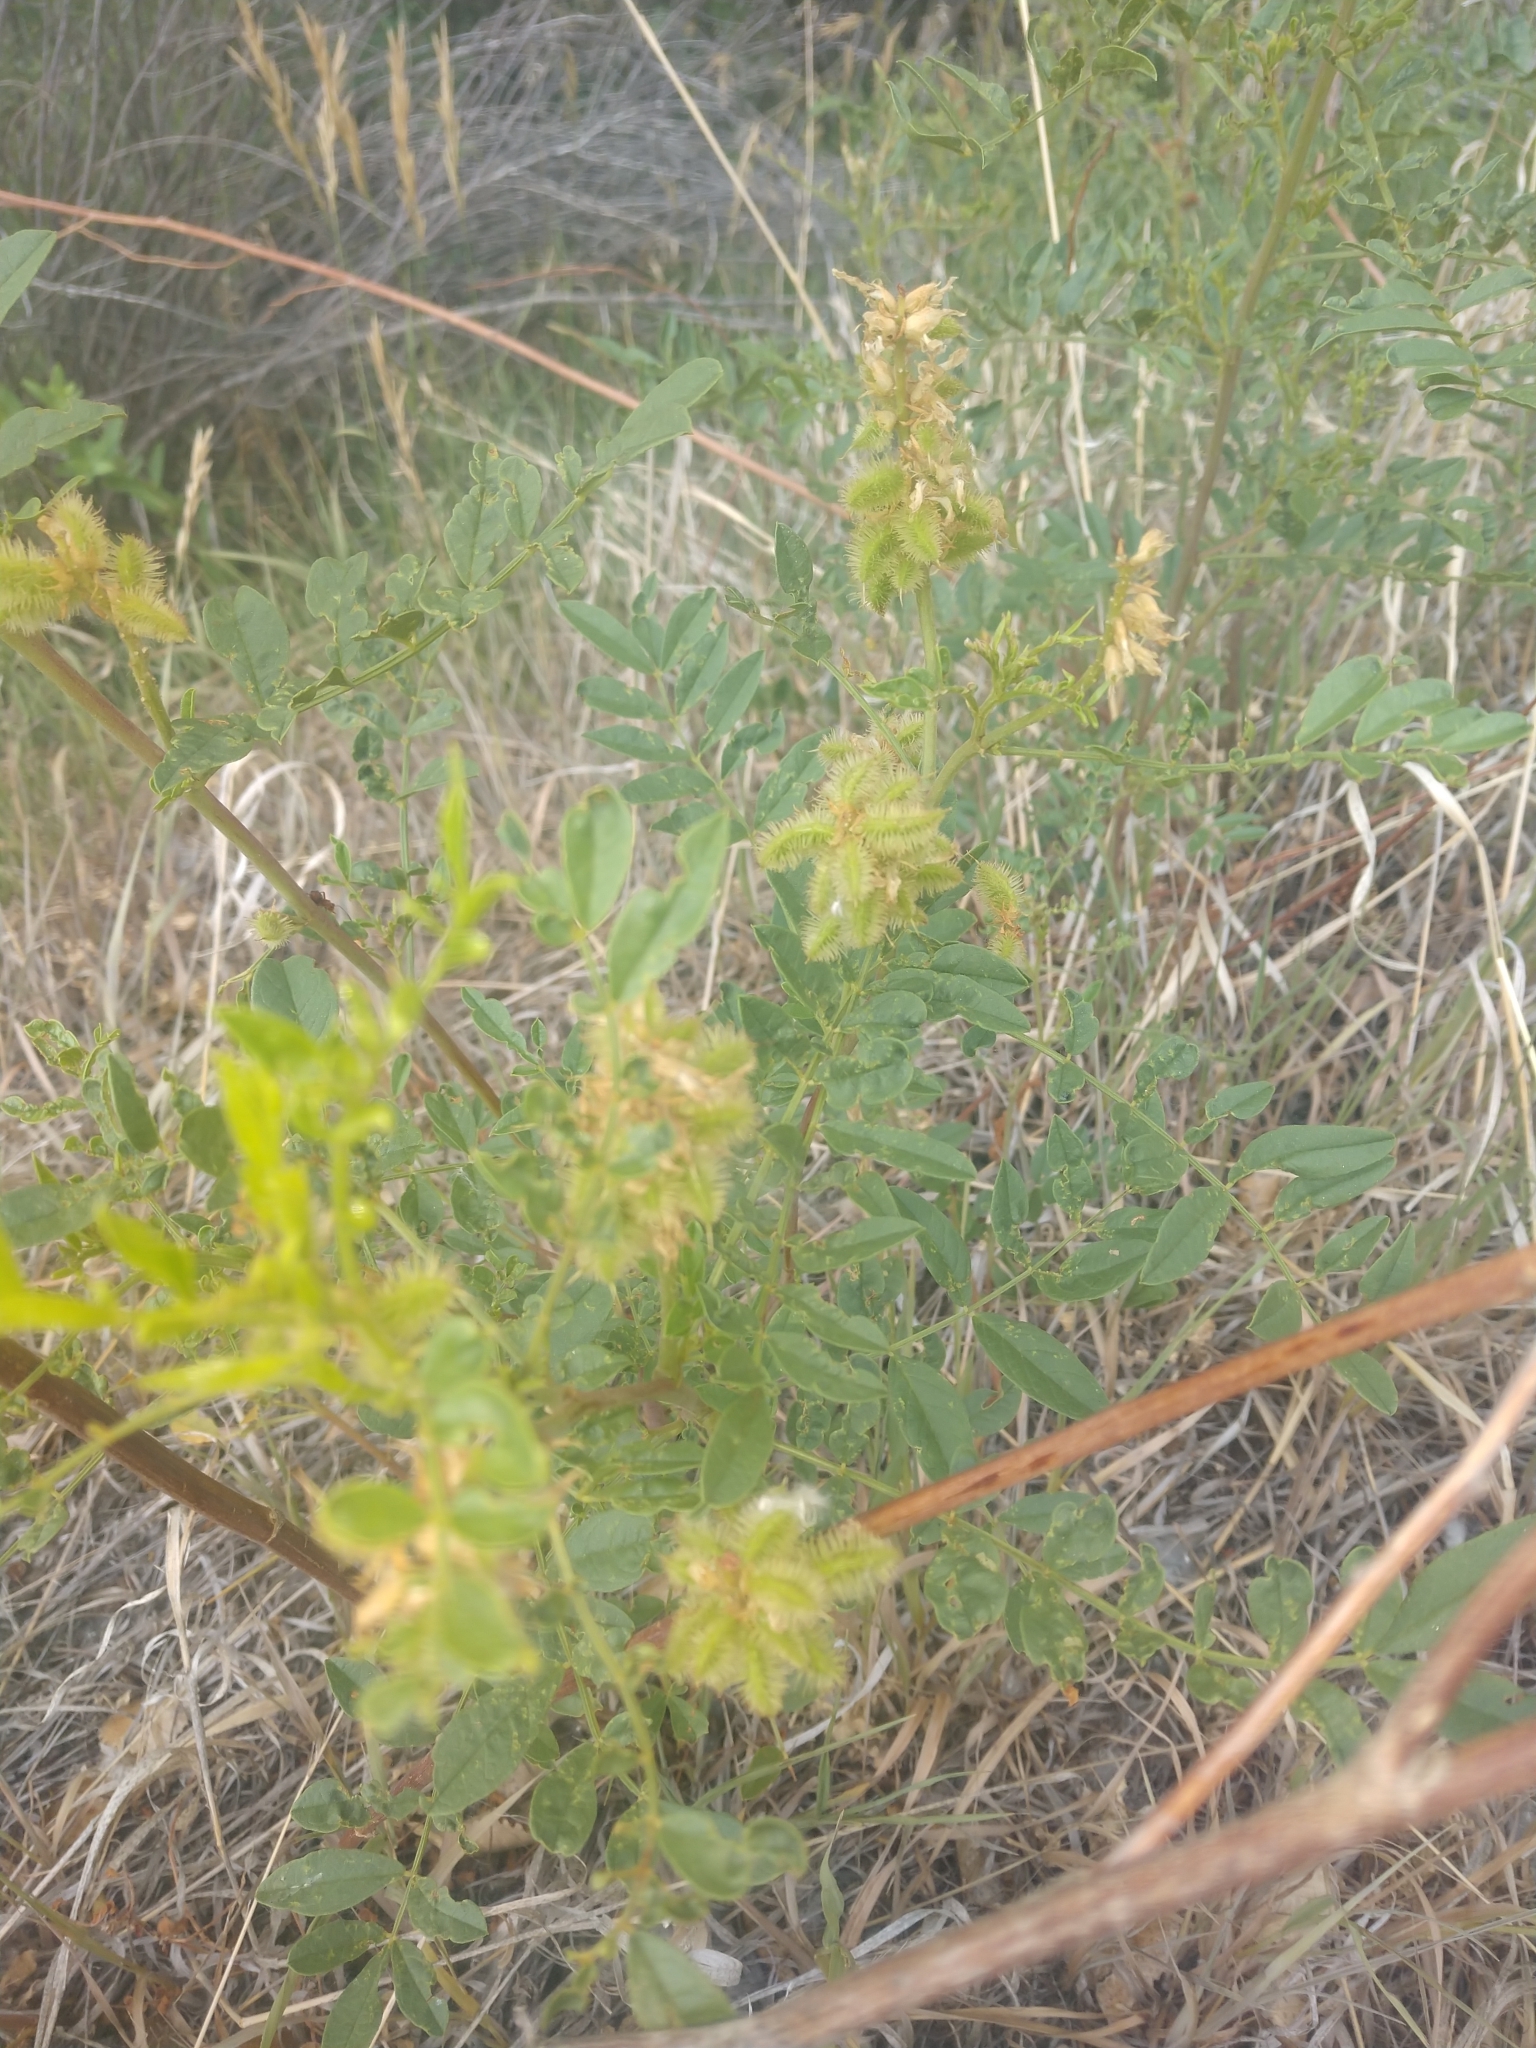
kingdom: Plantae
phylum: Tracheophyta
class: Magnoliopsida
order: Fabales
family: Fabaceae
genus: Glycyrrhiza
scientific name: Glycyrrhiza lepidota
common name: American liquorice
